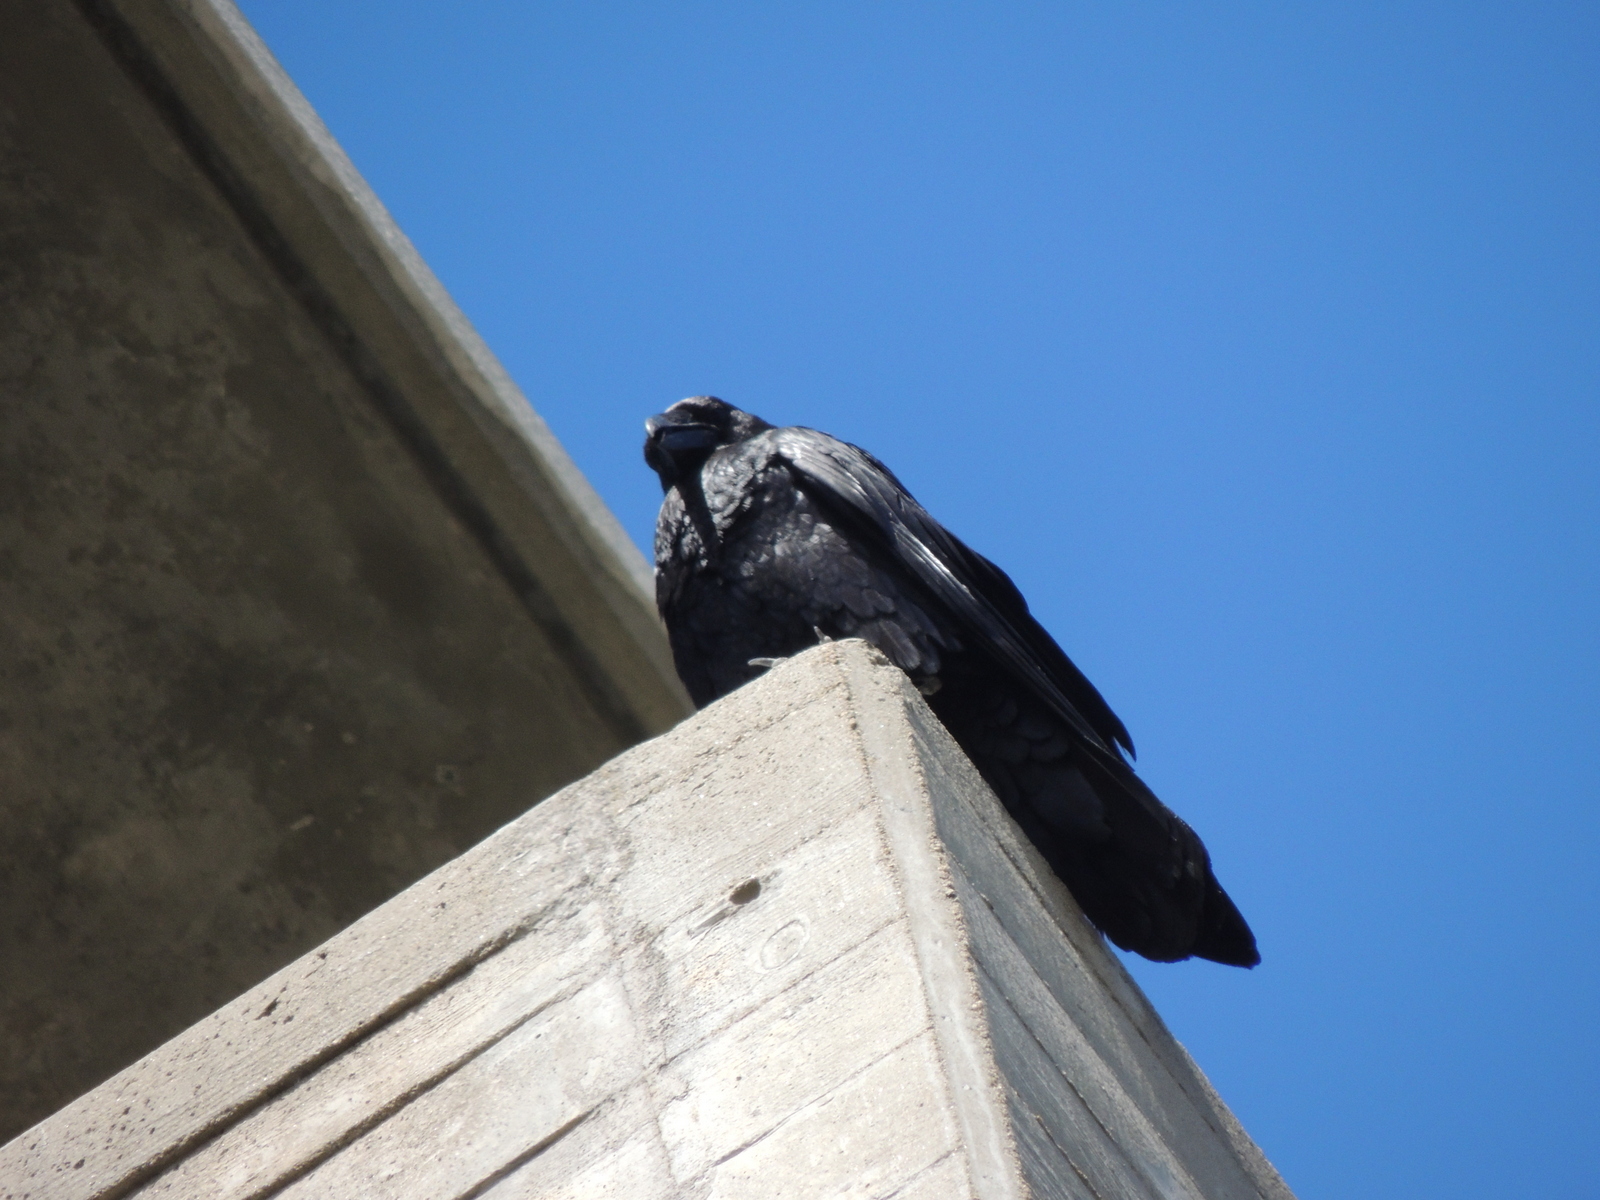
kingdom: Animalia
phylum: Chordata
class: Aves
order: Passeriformes
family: Corvidae
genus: Corvus
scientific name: Corvus corax
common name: Common raven
